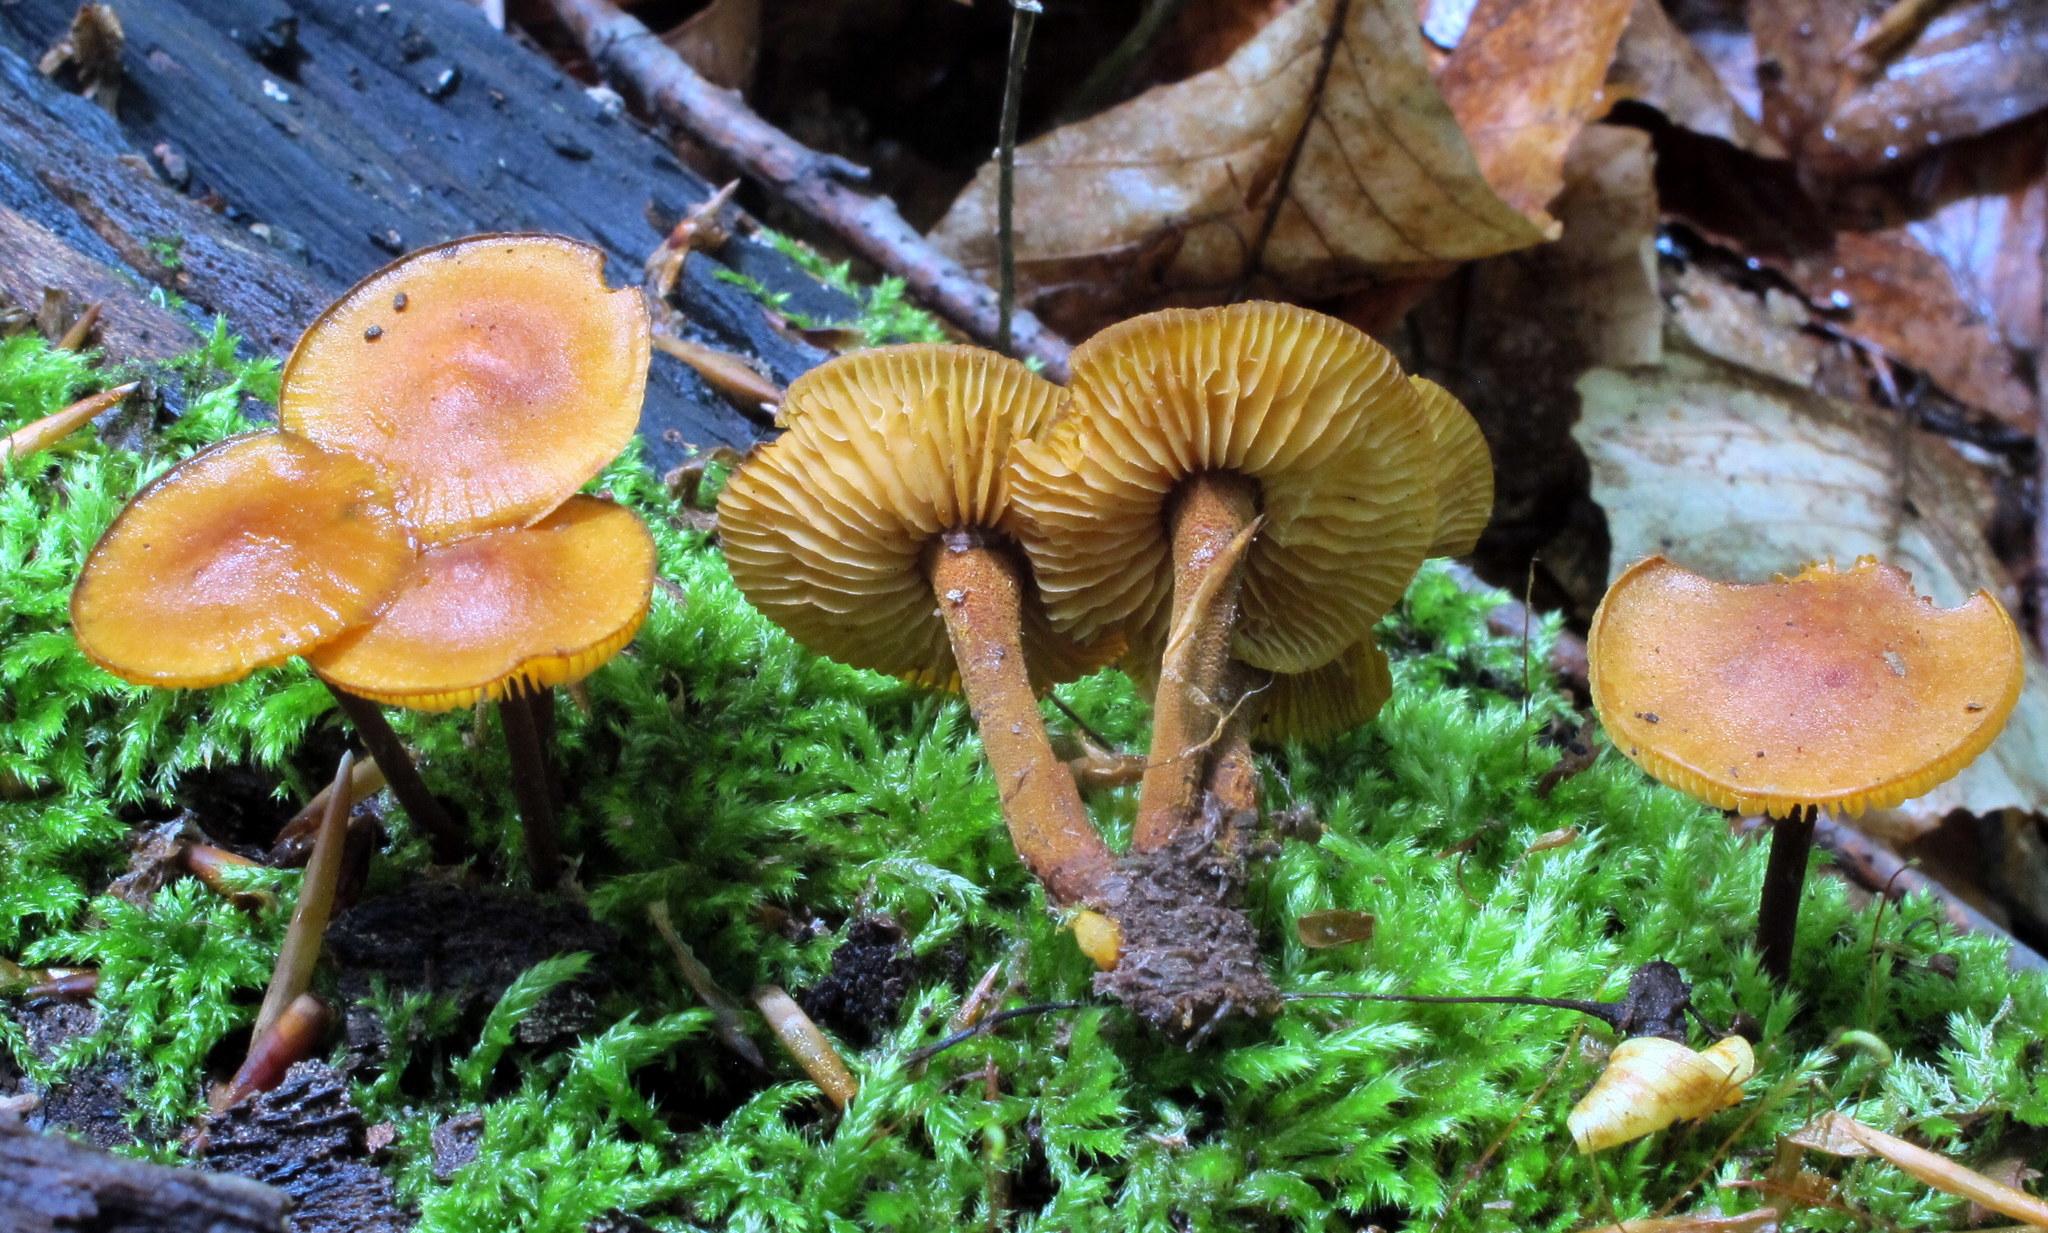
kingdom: Fungi
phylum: Basidiomycota
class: Agaricomycetes
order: Agaricales
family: Mycenaceae
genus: Xeromphalina
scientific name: Xeromphalina tenuipes
